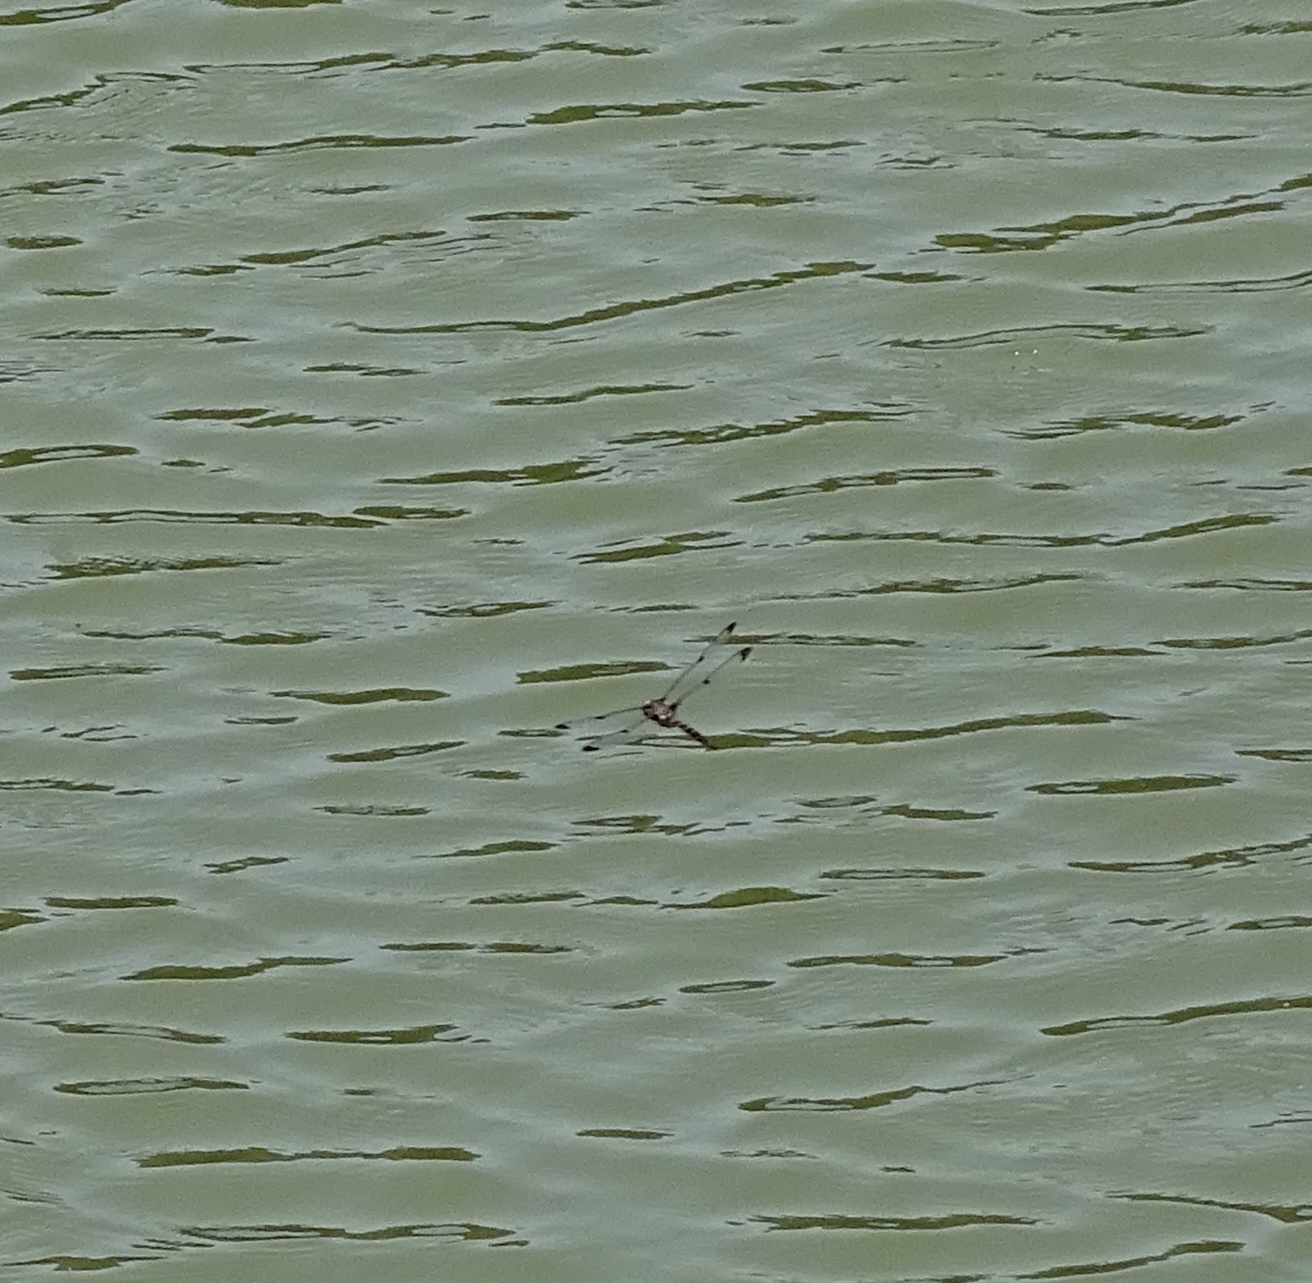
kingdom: Animalia
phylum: Arthropoda
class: Insecta
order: Odonata
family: Corduliidae
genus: Epitheca
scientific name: Epitheca princeps
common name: Prince baskettail
